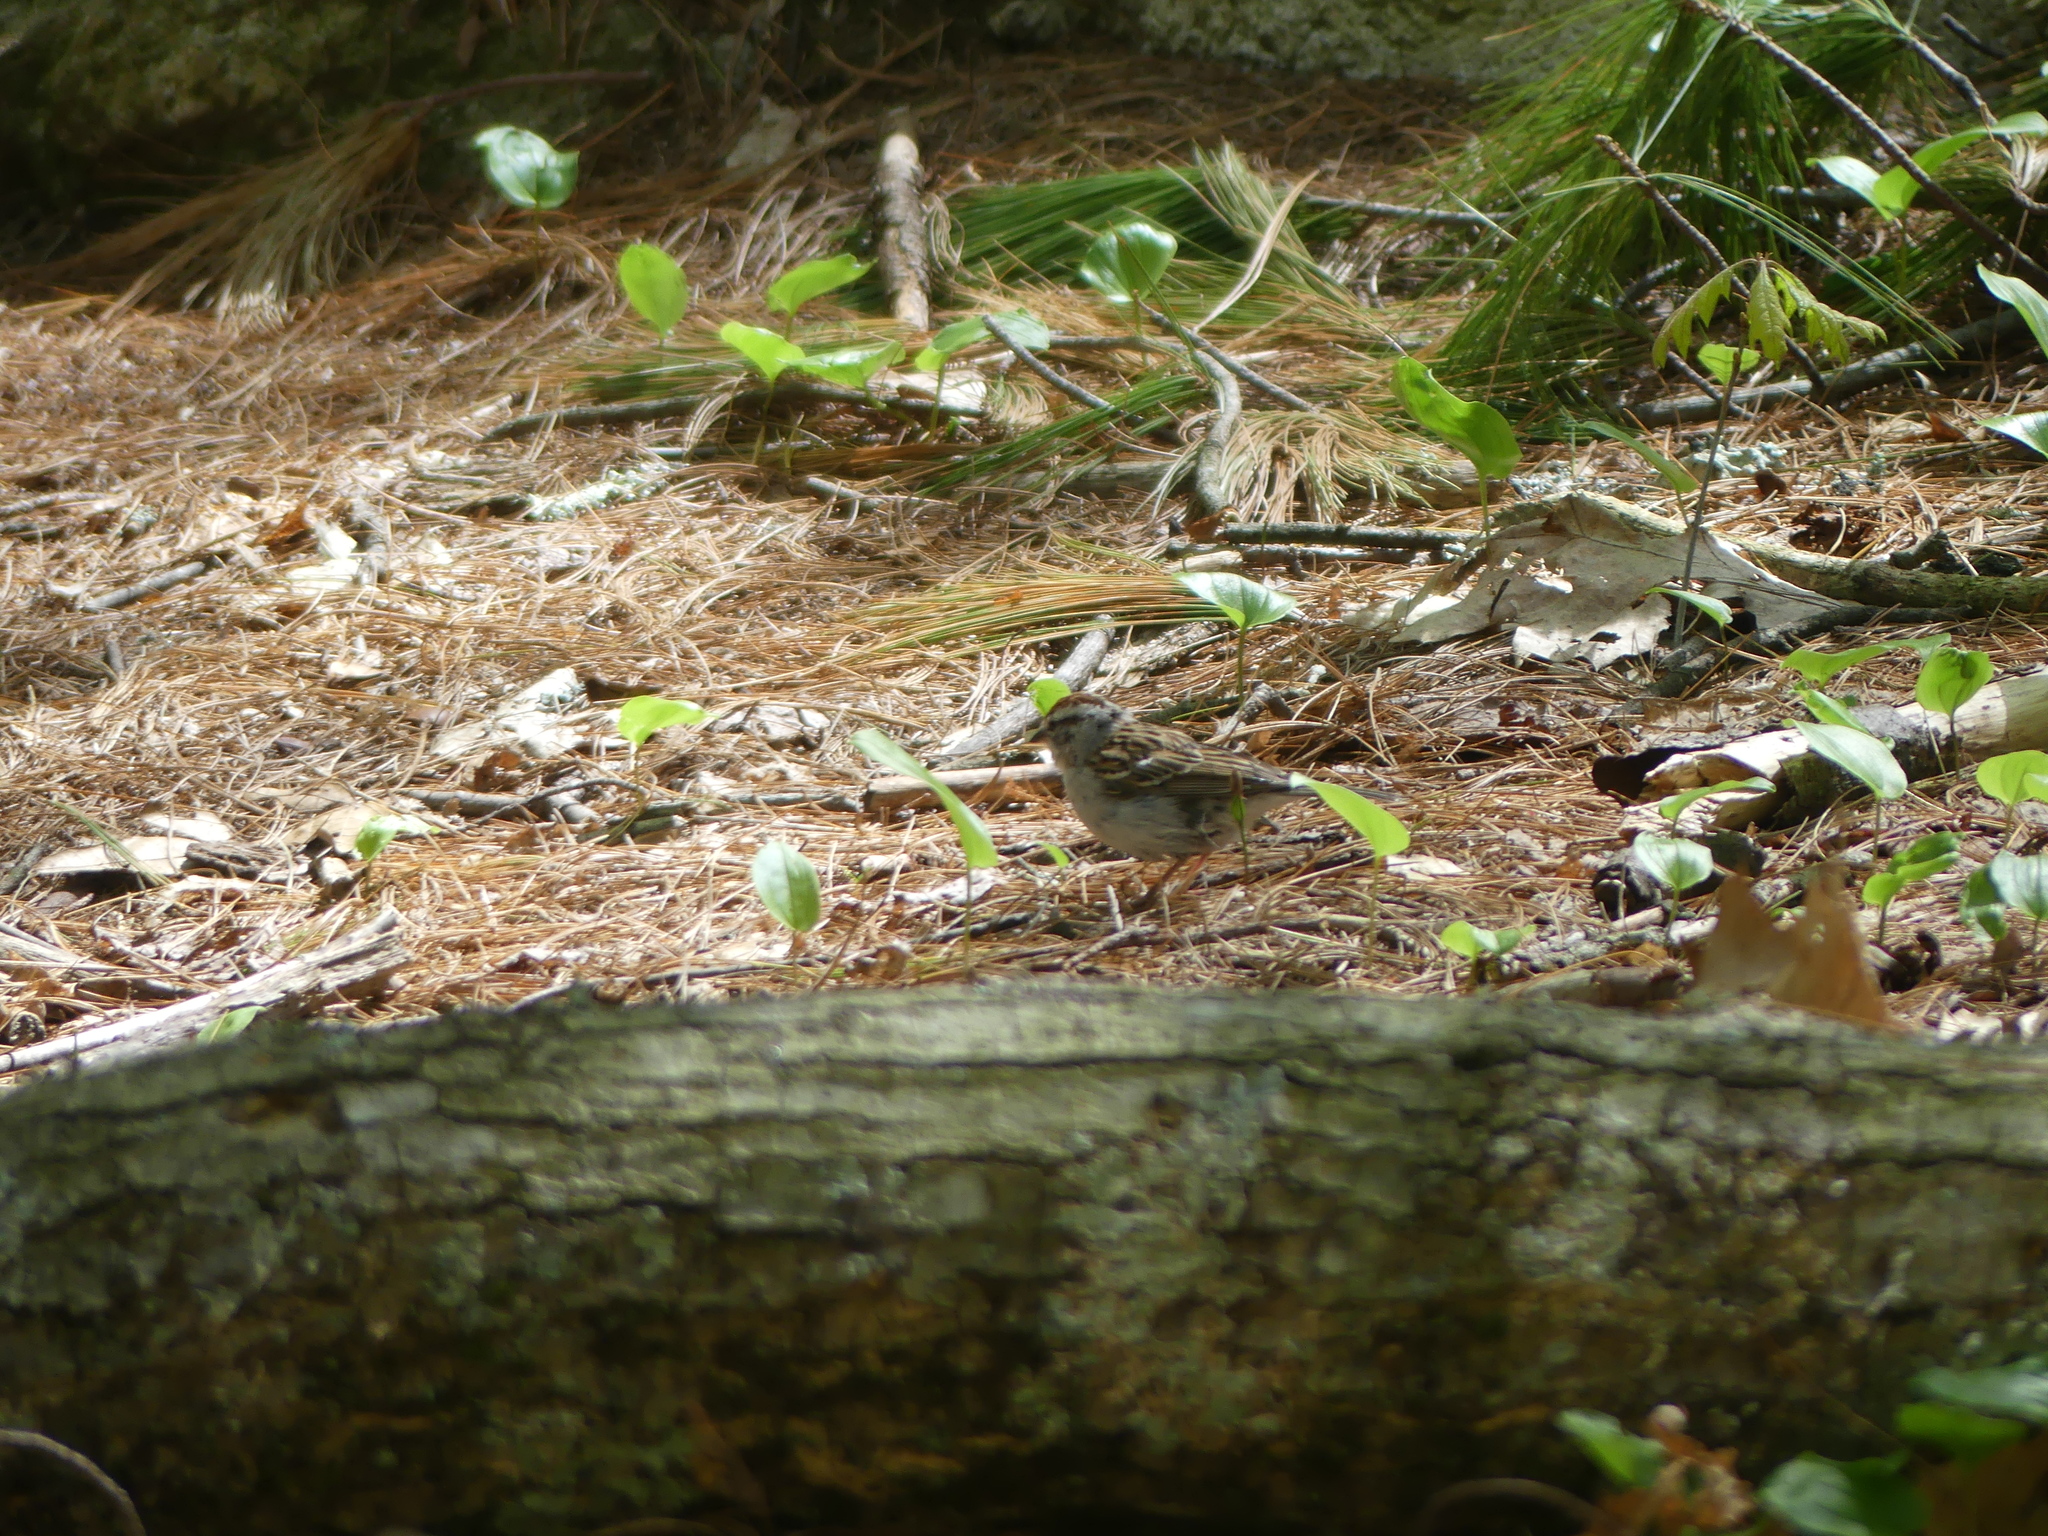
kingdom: Animalia
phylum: Chordata
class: Aves
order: Passeriformes
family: Passerellidae
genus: Spizella
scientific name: Spizella passerina
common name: Chipping sparrow
